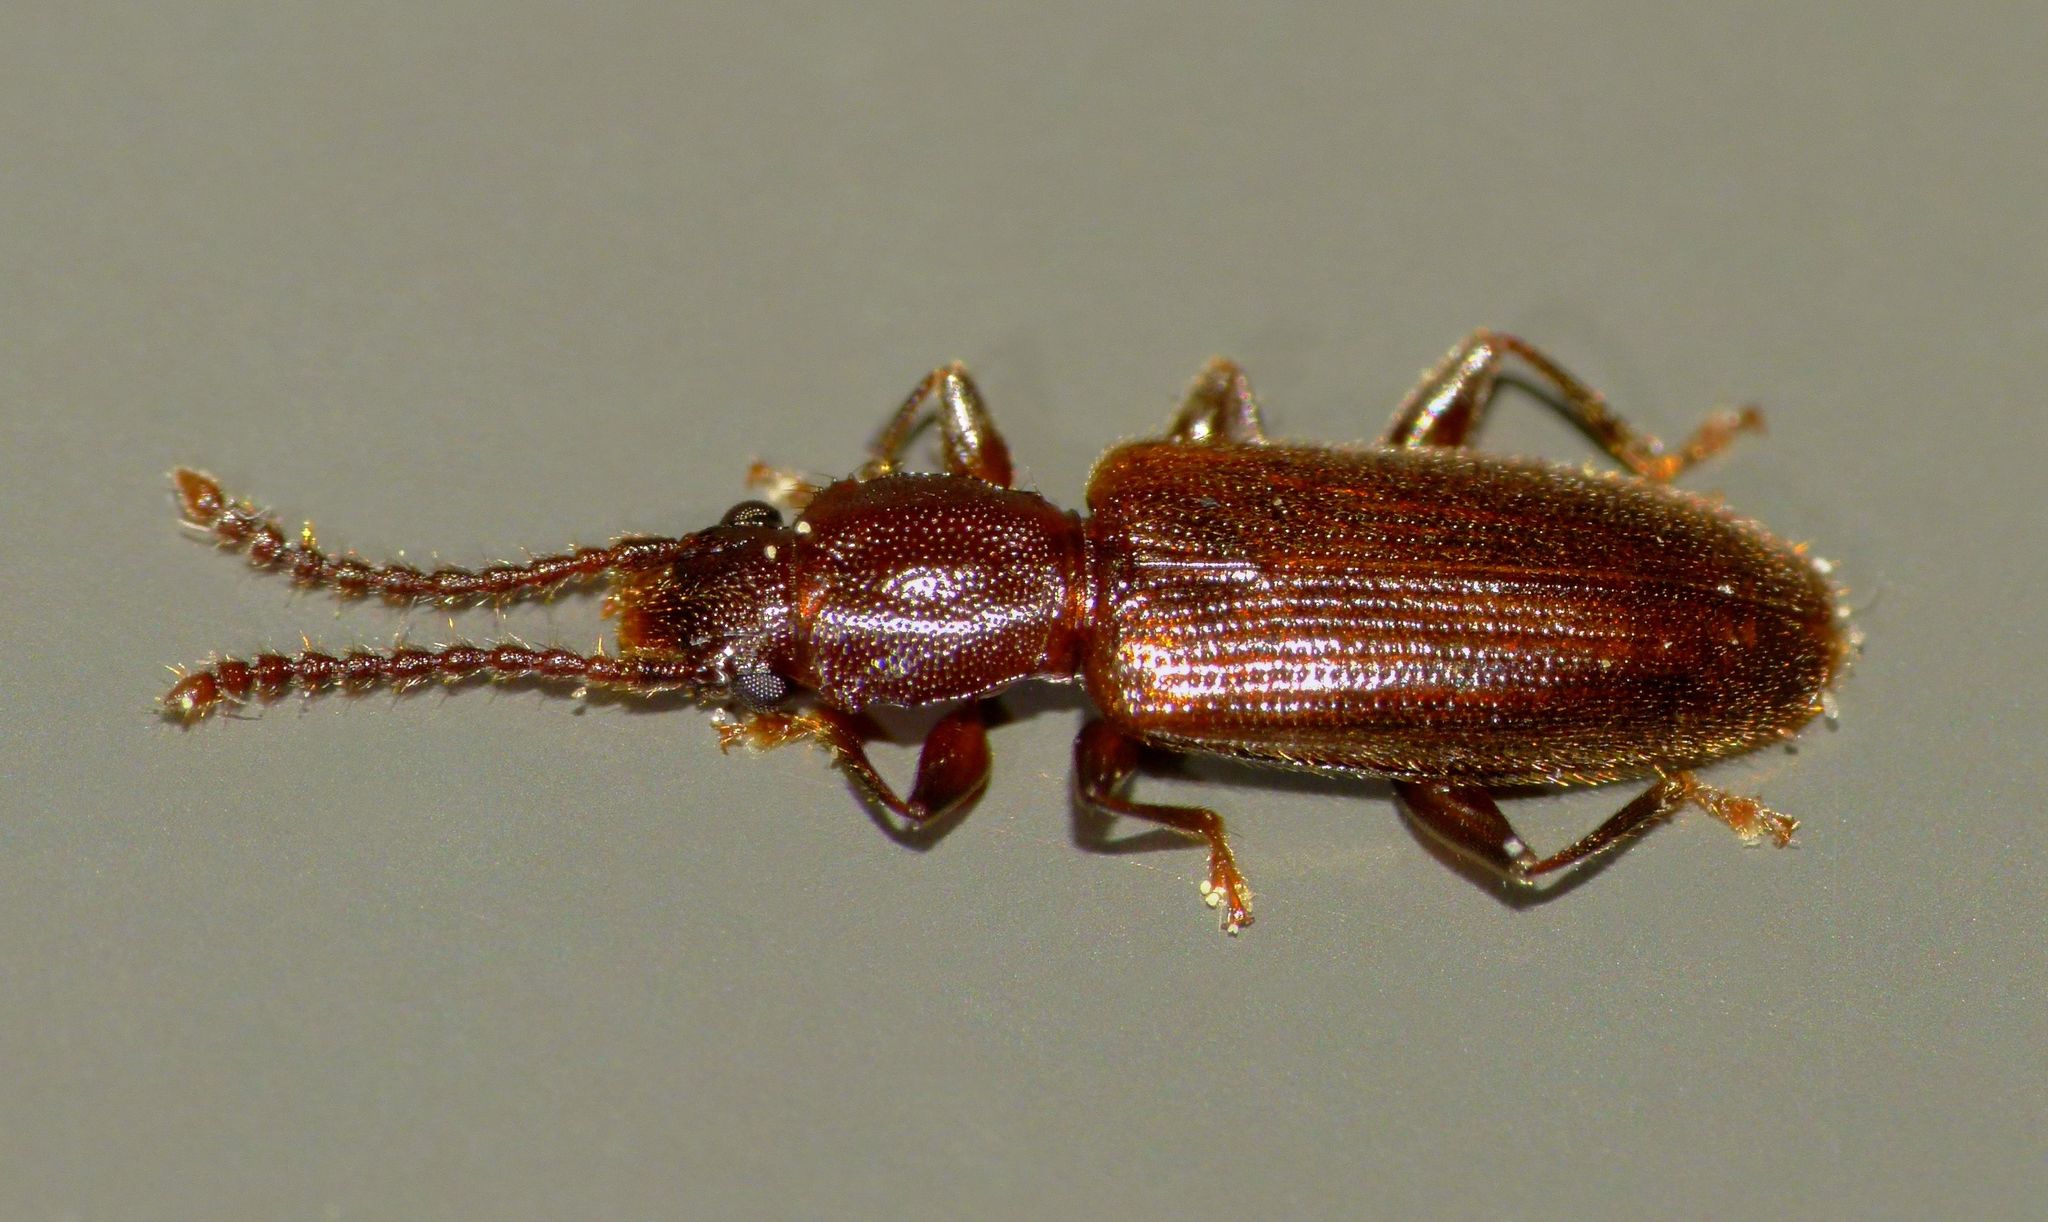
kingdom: Animalia
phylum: Arthropoda
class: Insecta
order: Coleoptera
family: Silvanidae
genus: Cryptamorpha
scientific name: Cryptamorpha brevicornis
